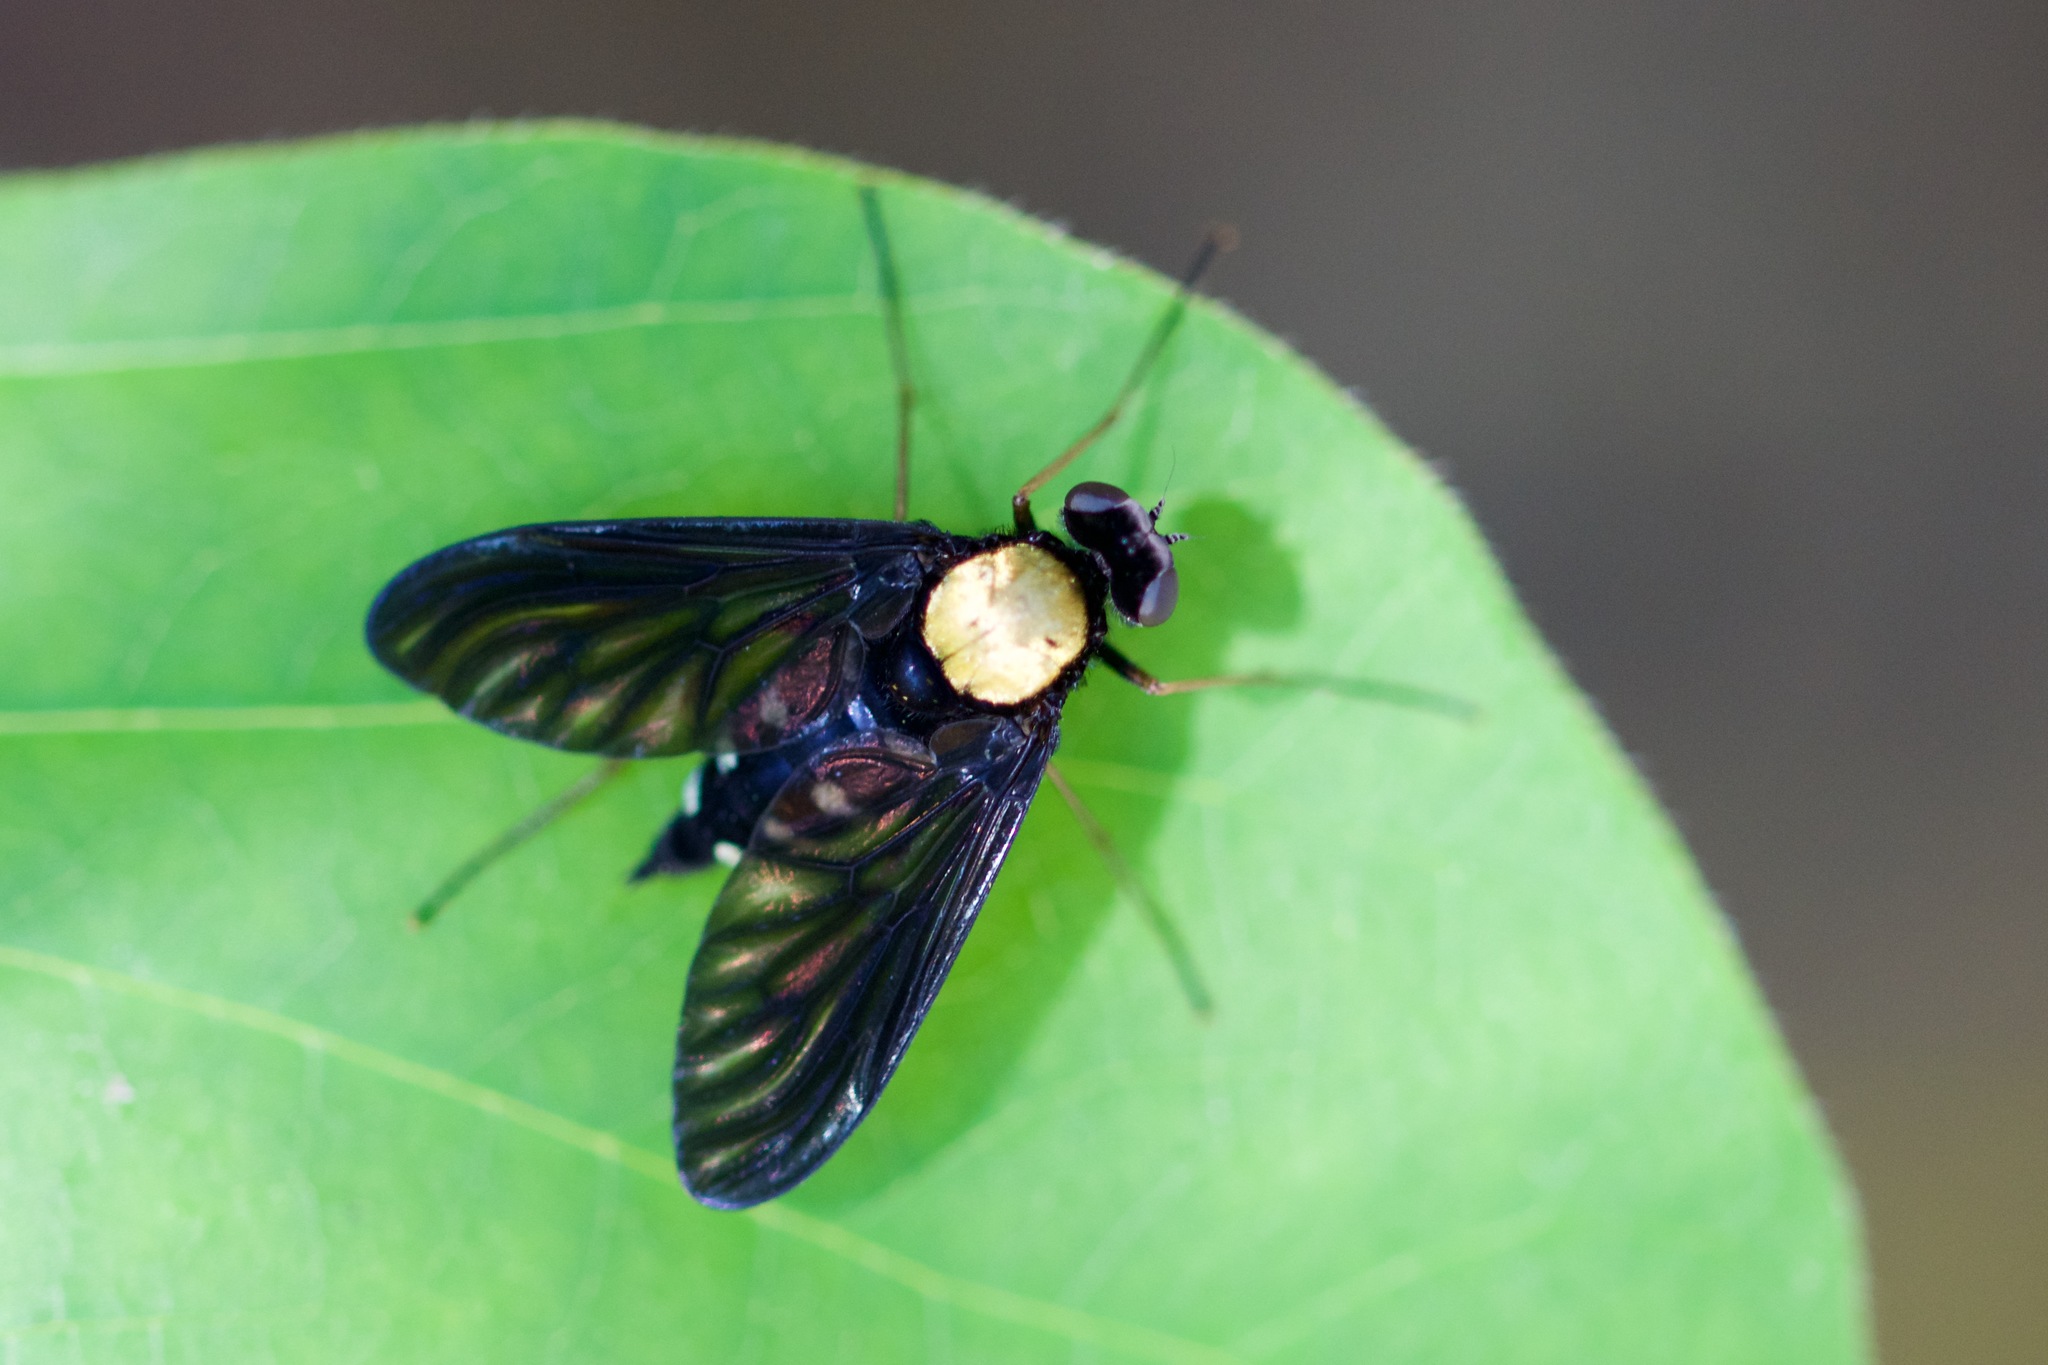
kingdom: Animalia
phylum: Arthropoda
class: Insecta
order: Diptera
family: Rhagionidae
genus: Chrysopilus
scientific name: Chrysopilus thoracicus
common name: Golden-backed snipe fly
